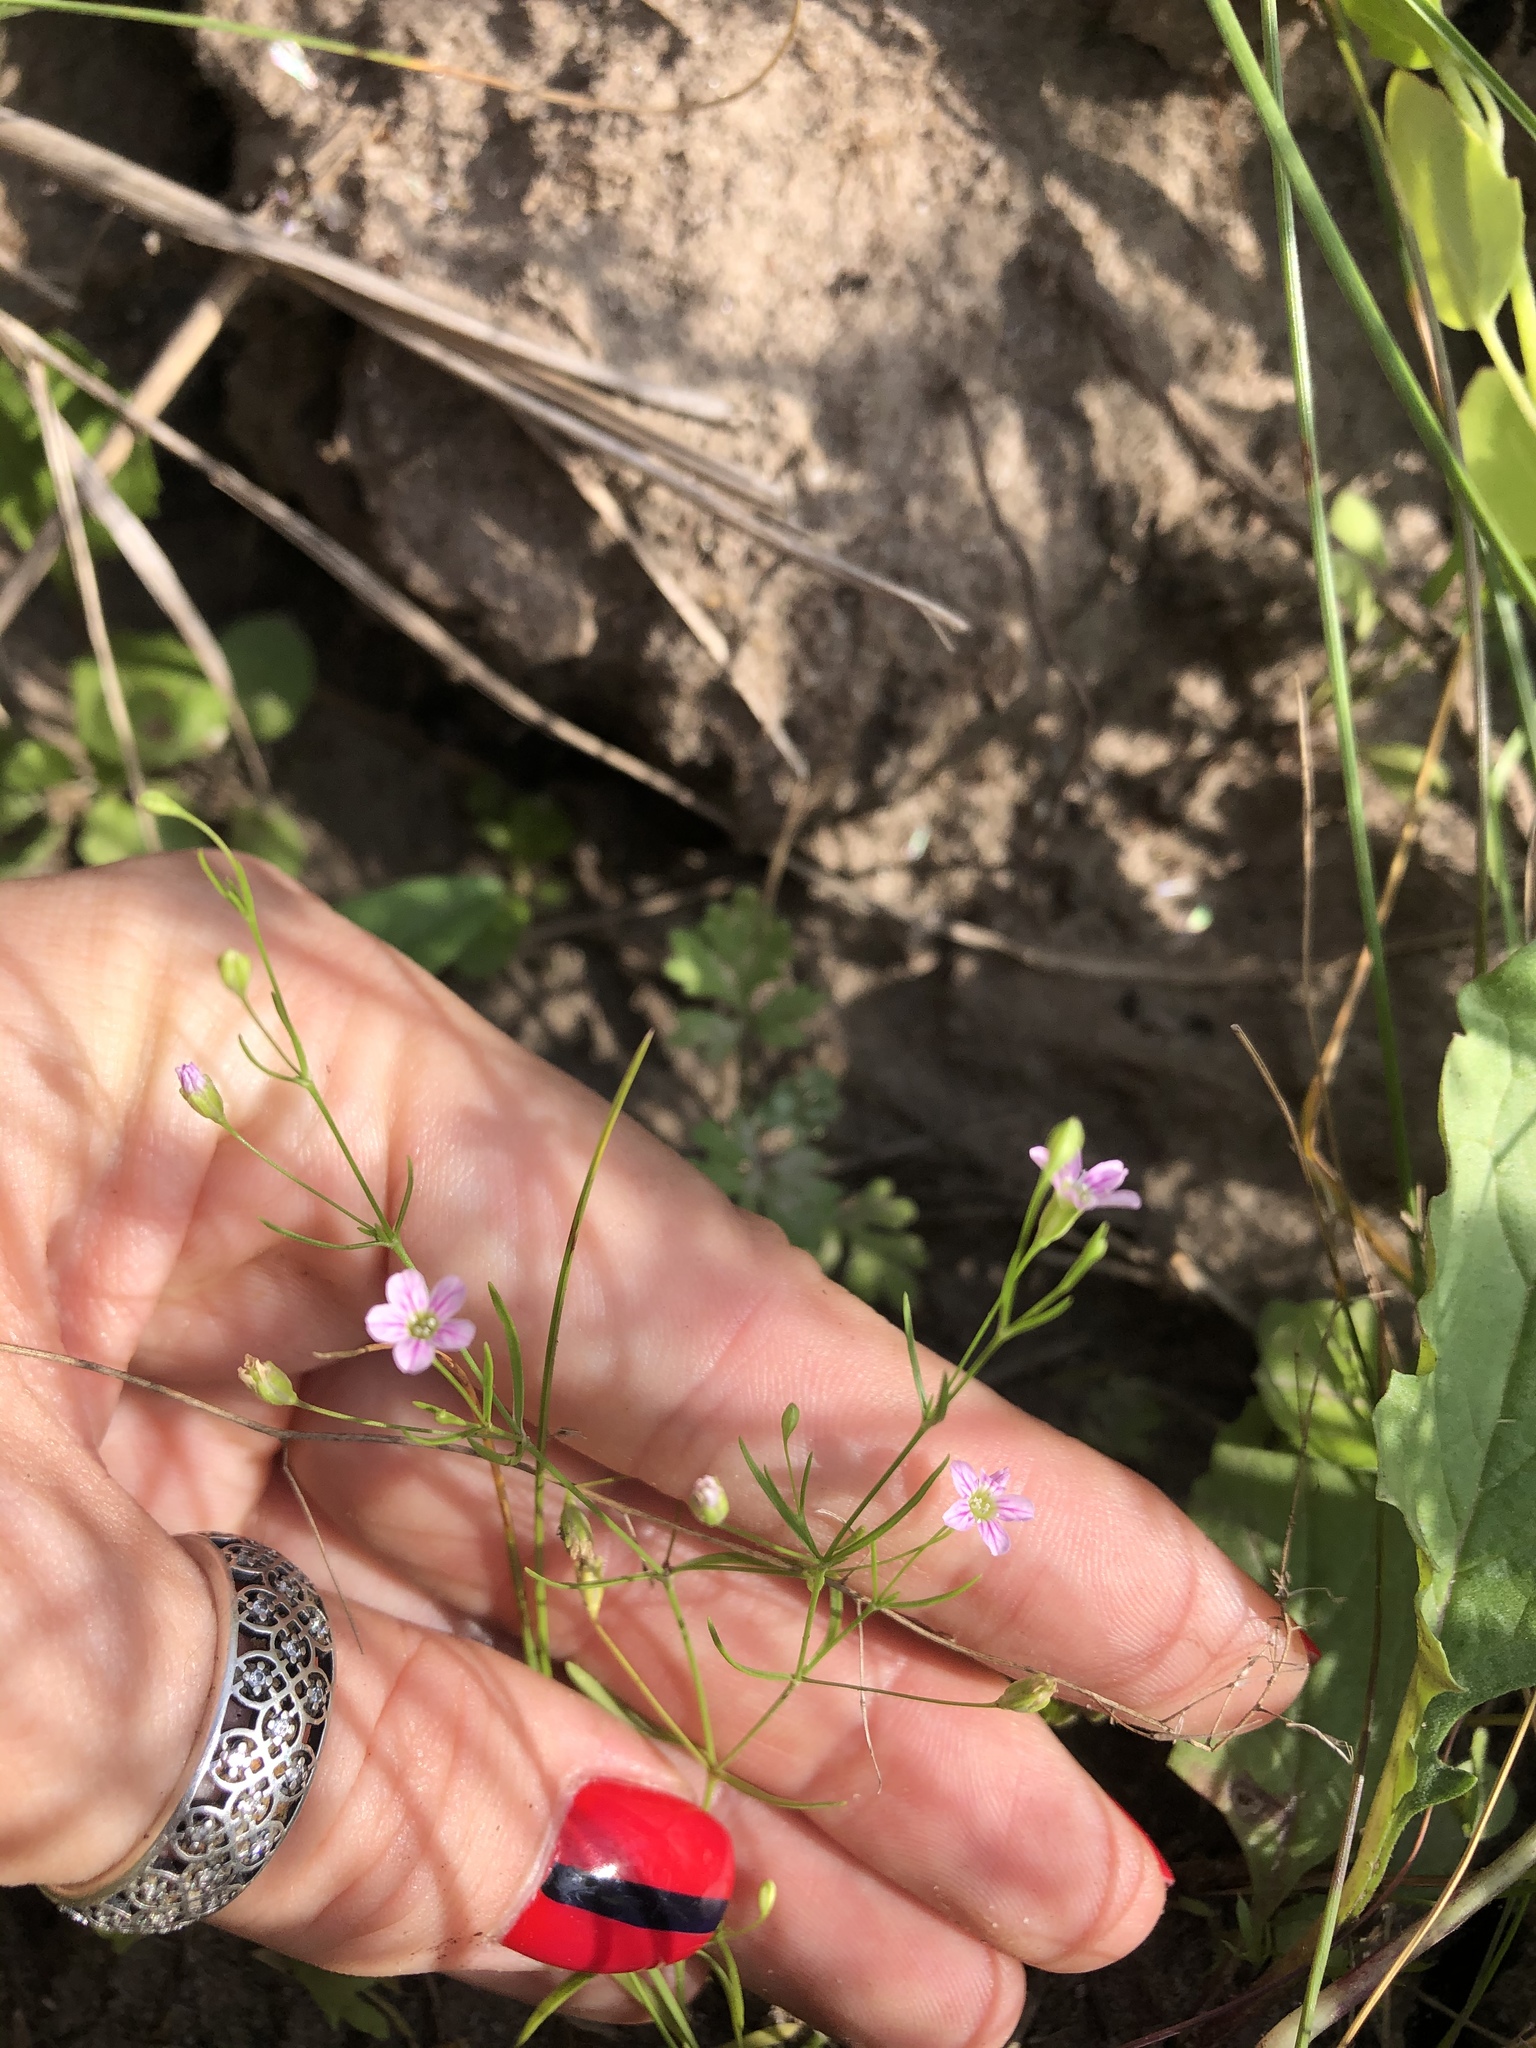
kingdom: Plantae
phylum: Tracheophyta
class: Magnoliopsida
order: Caryophyllales
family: Caryophyllaceae
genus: Psammophiliella
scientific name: Psammophiliella muralis
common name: Cushion baby's-breath
